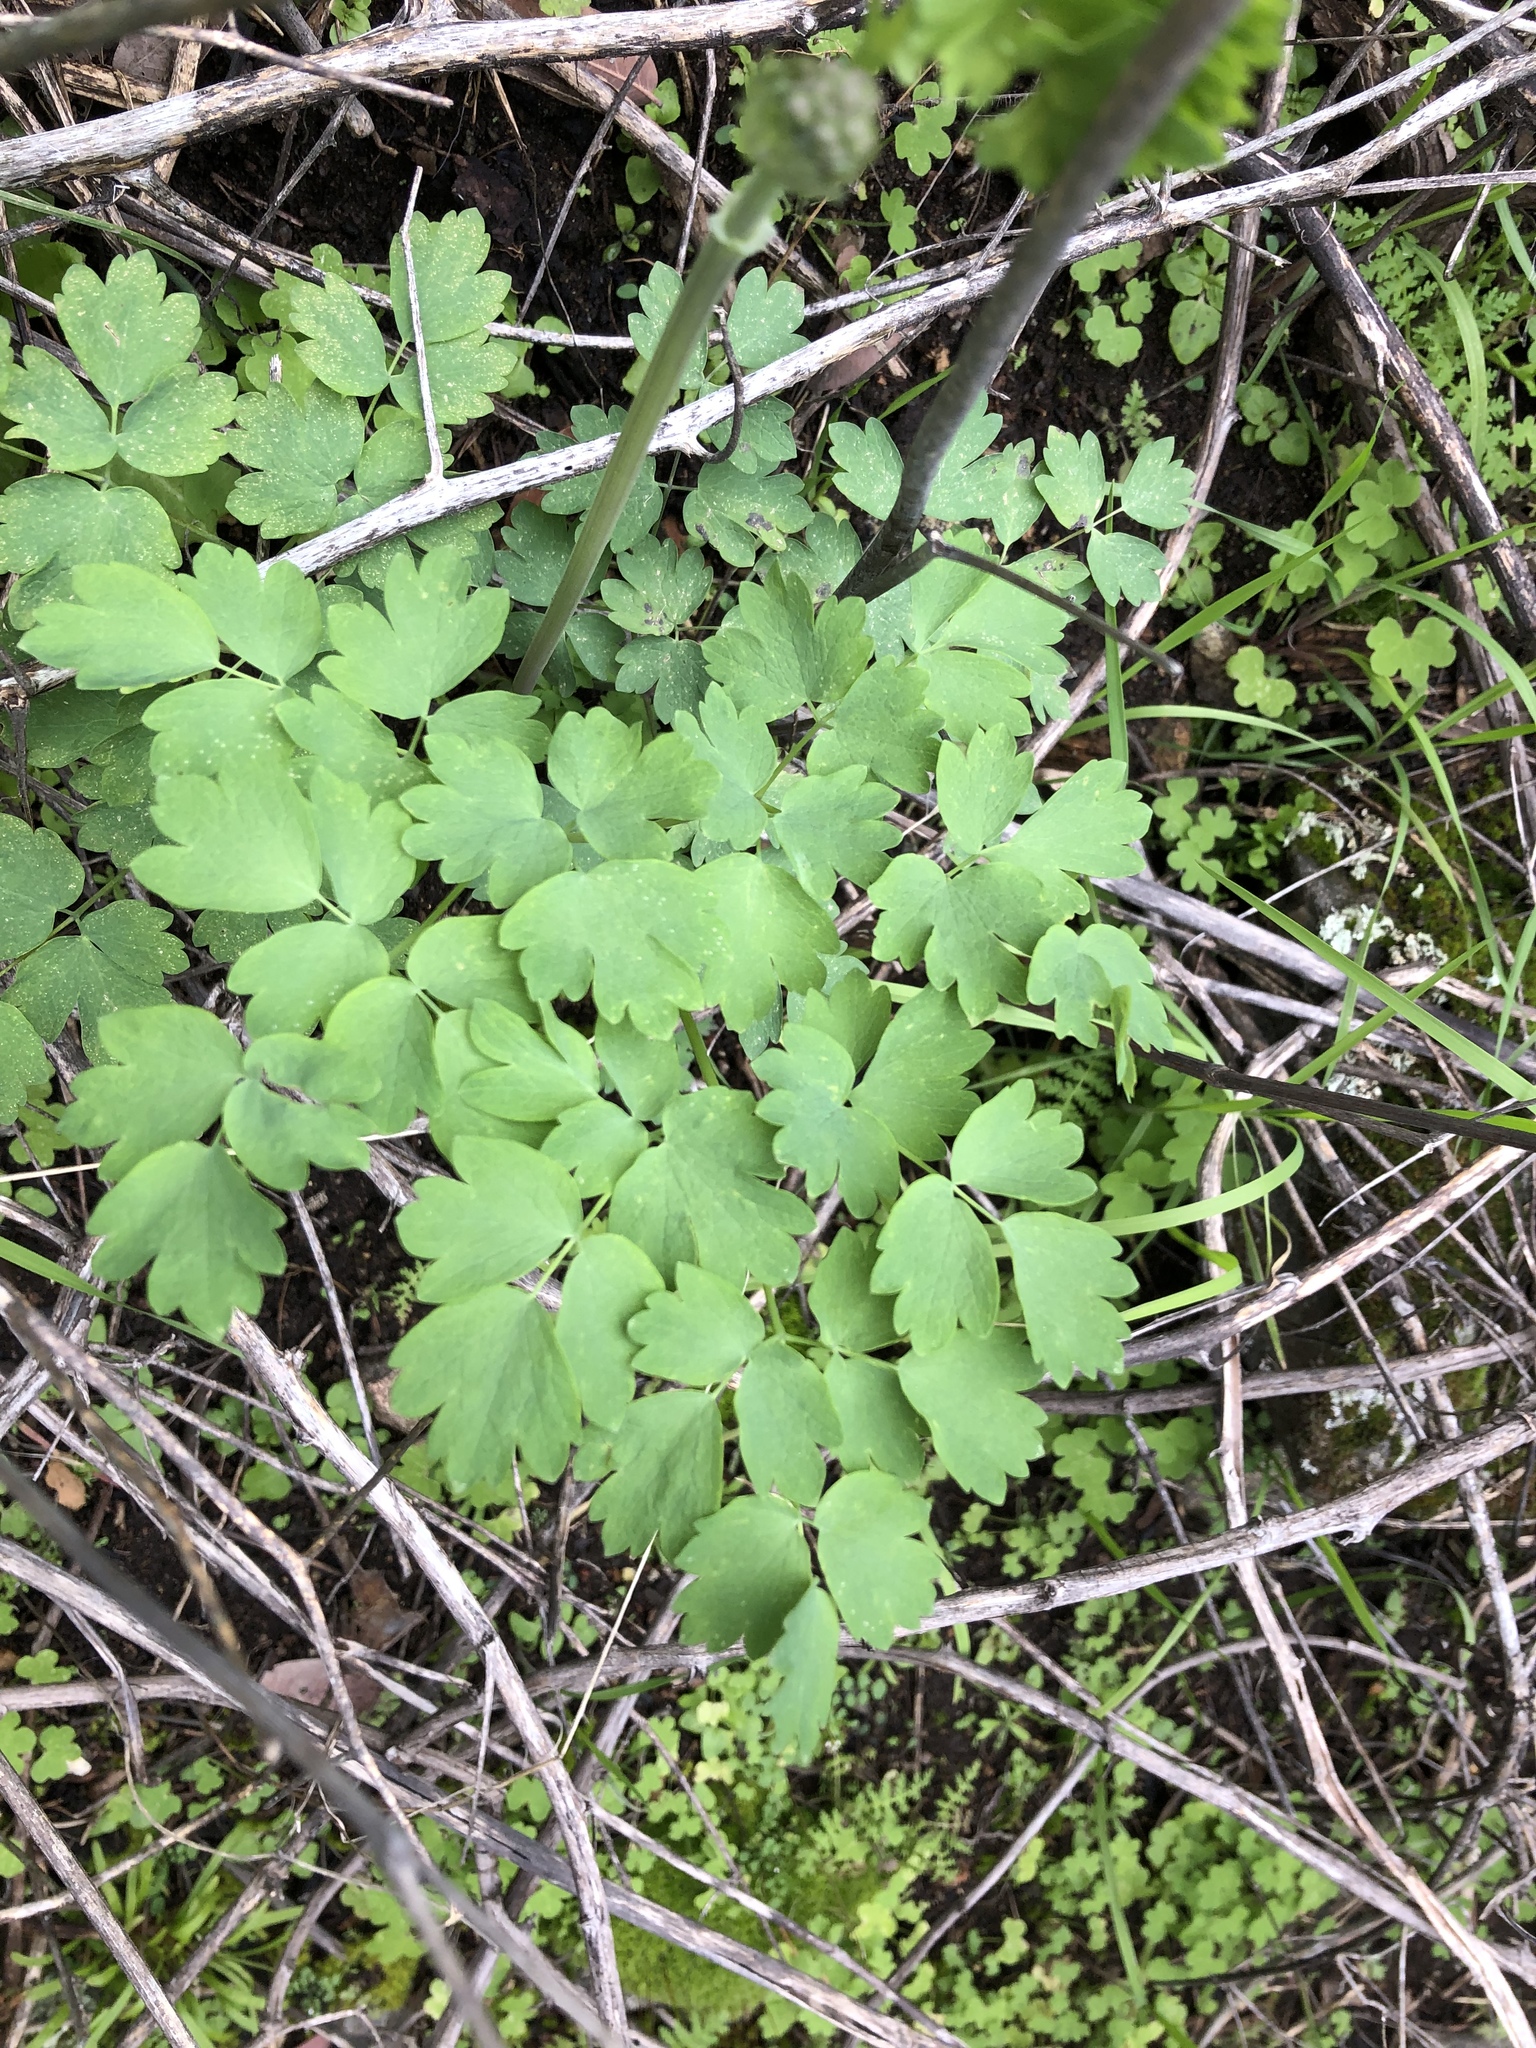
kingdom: Plantae
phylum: Tracheophyta
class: Magnoliopsida
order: Ranunculales
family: Ranunculaceae
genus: Thalictrum
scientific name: Thalictrum fendleri
